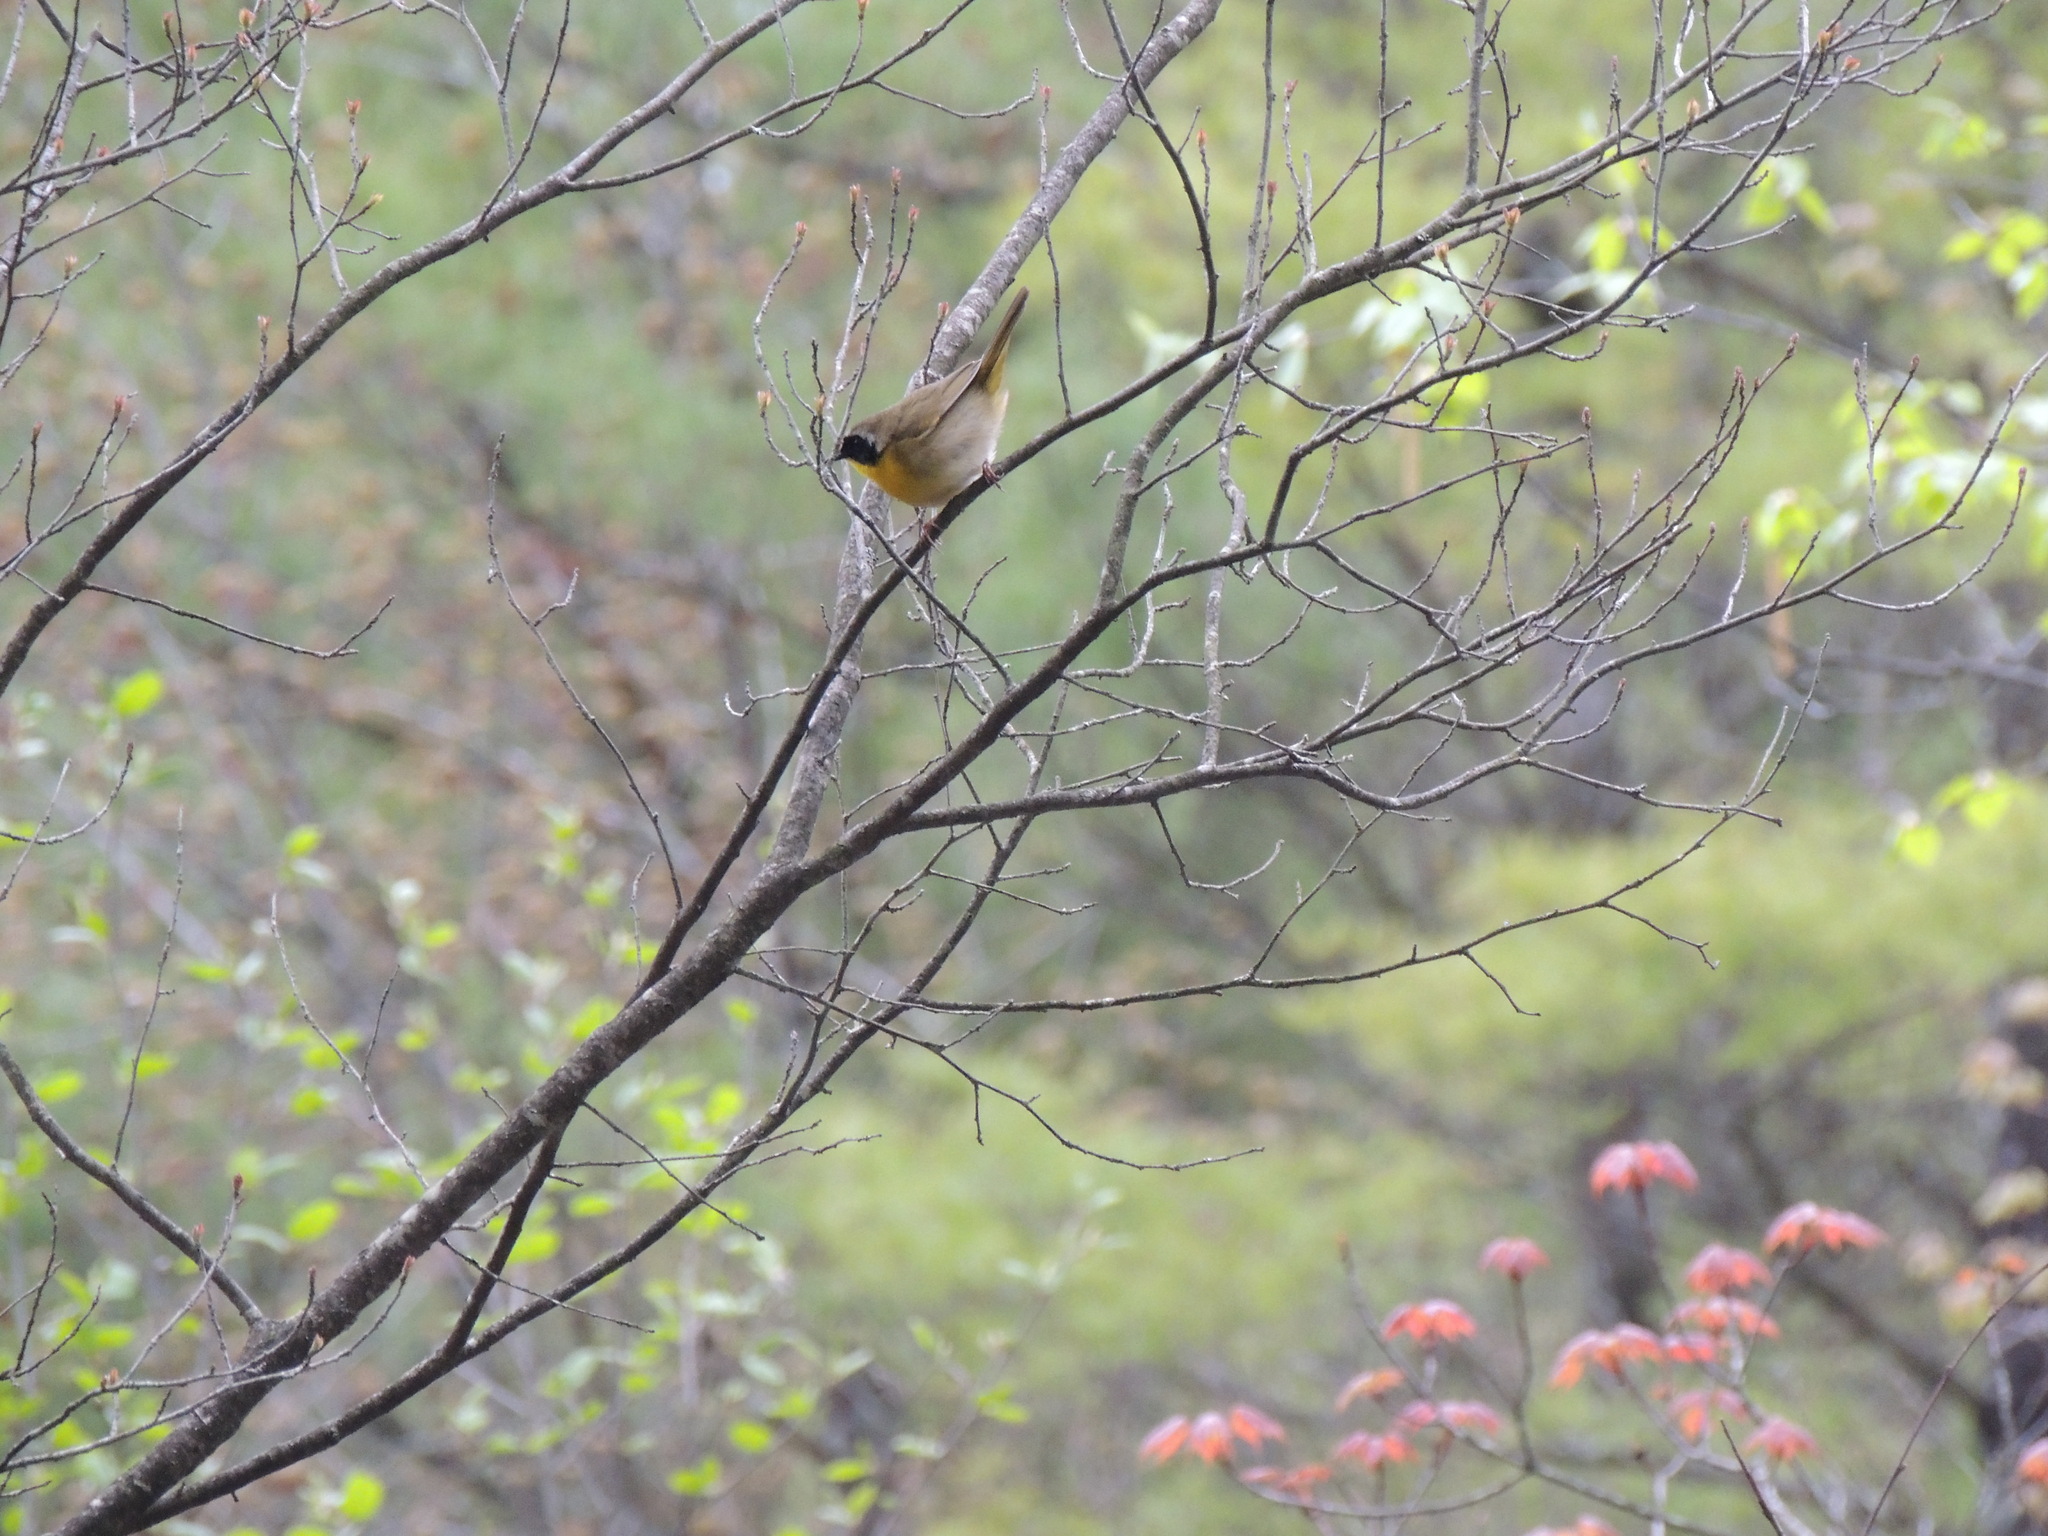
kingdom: Animalia
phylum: Chordata
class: Aves
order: Passeriformes
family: Parulidae
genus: Geothlypis
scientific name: Geothlypis trichas
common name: Common yellowthroat
